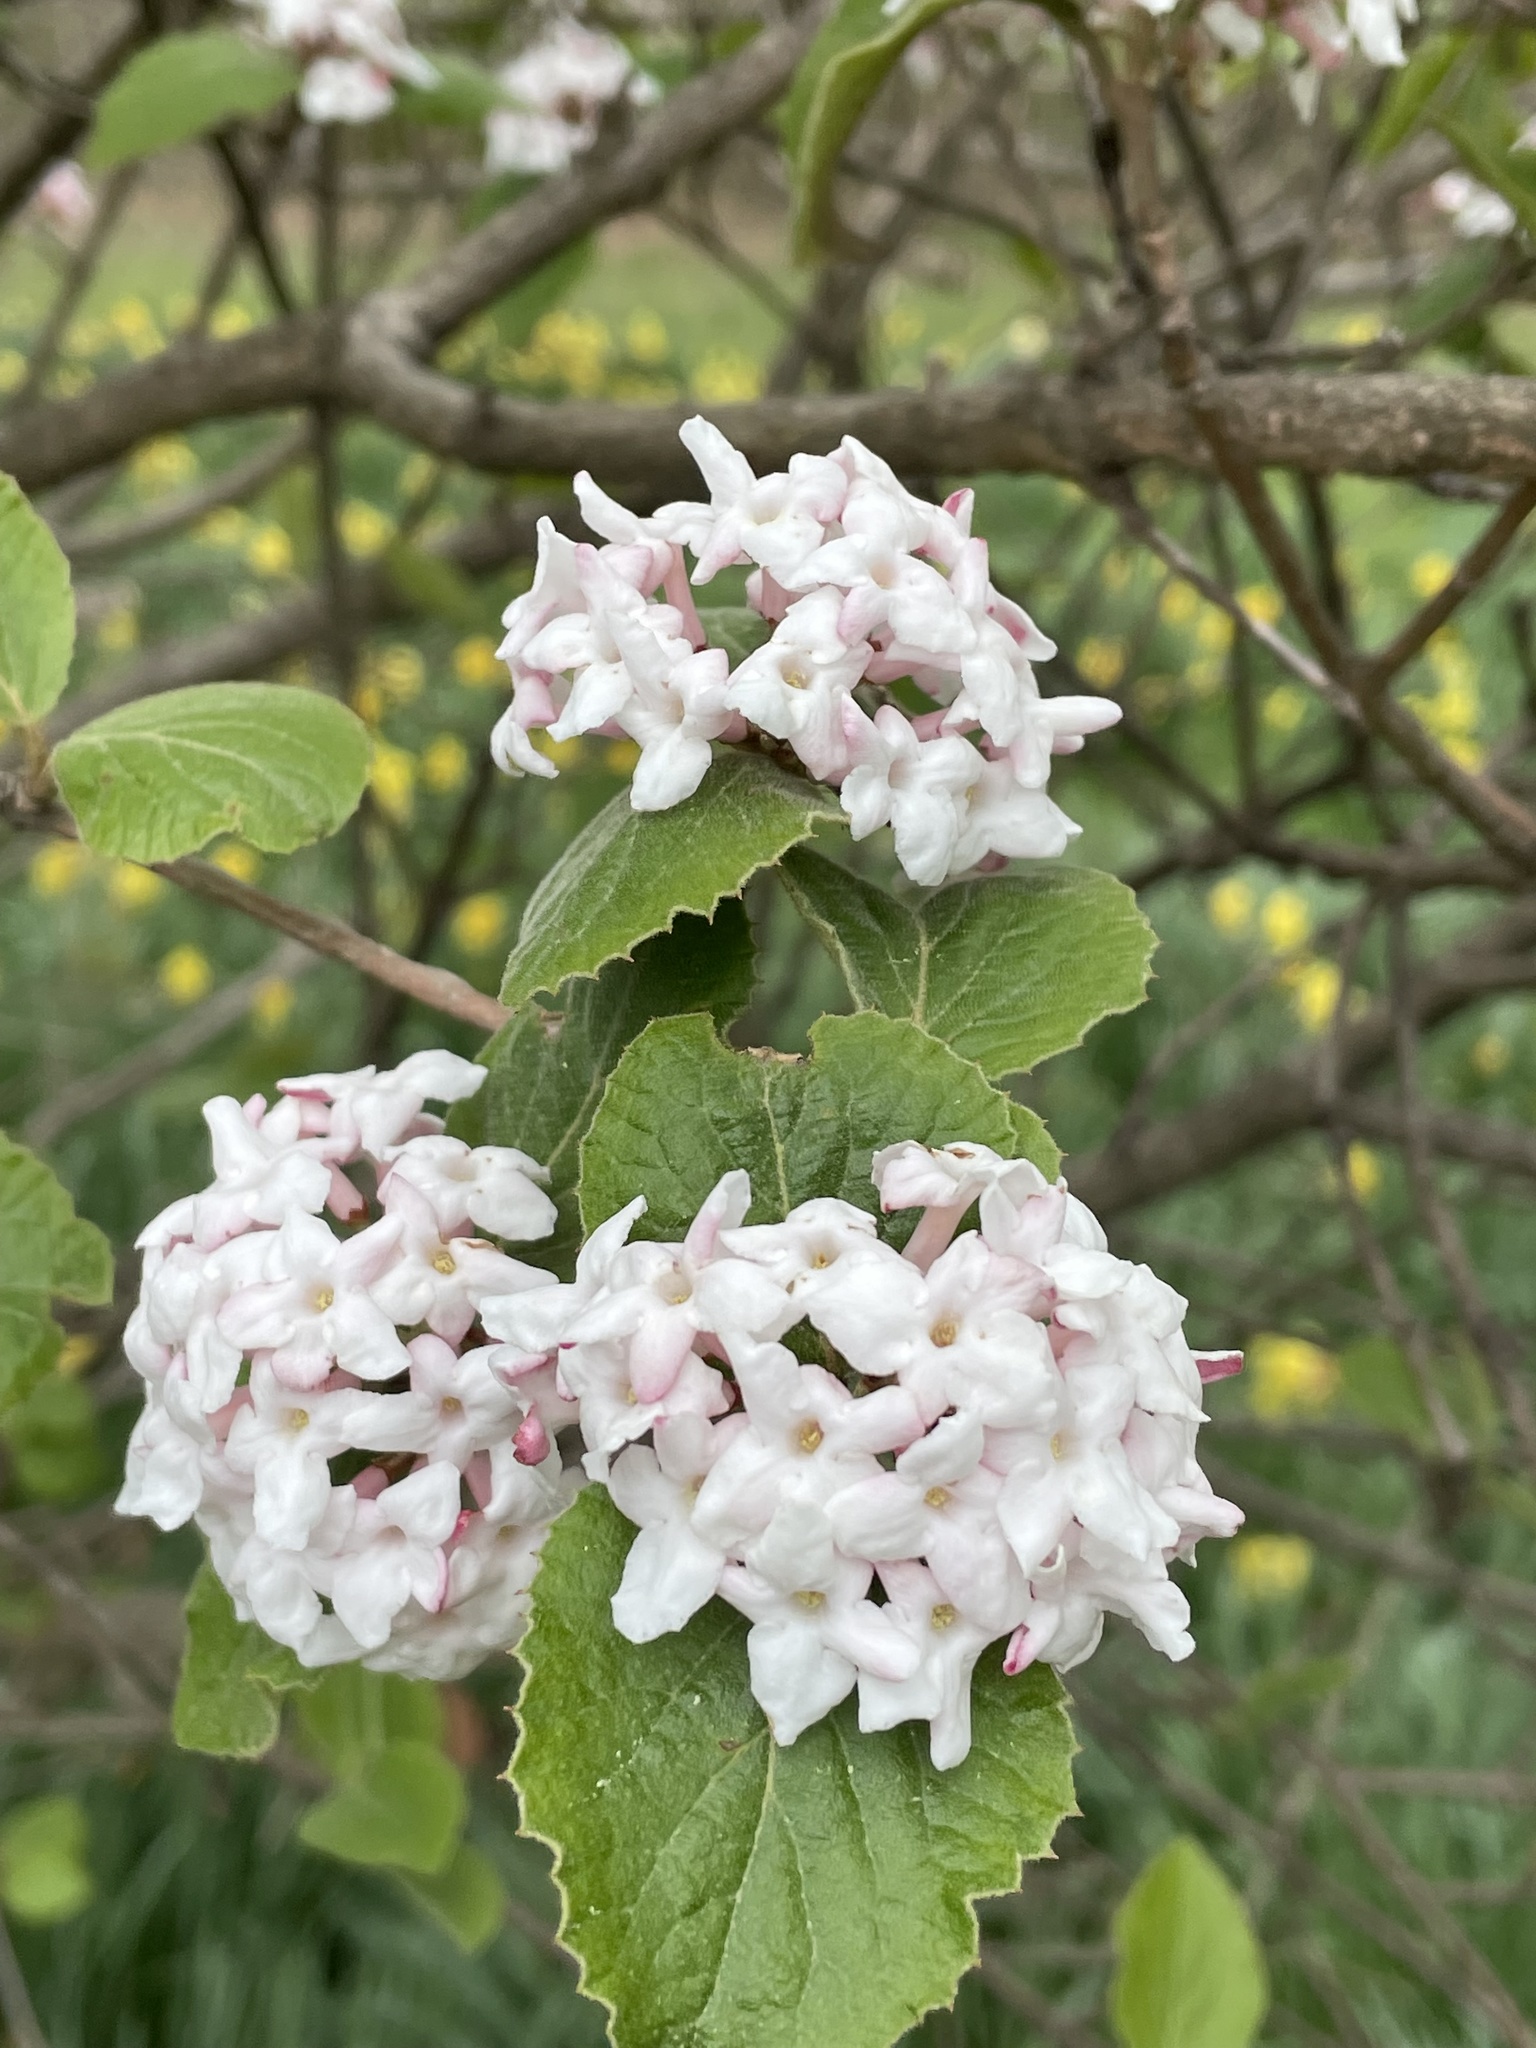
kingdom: Plantae
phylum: Tracheophyta
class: Magnoliopsida
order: Dipsacales
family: Viburnaceae
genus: Viburnum
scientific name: Viburnum carlesii
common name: Koreanspice viburnum
